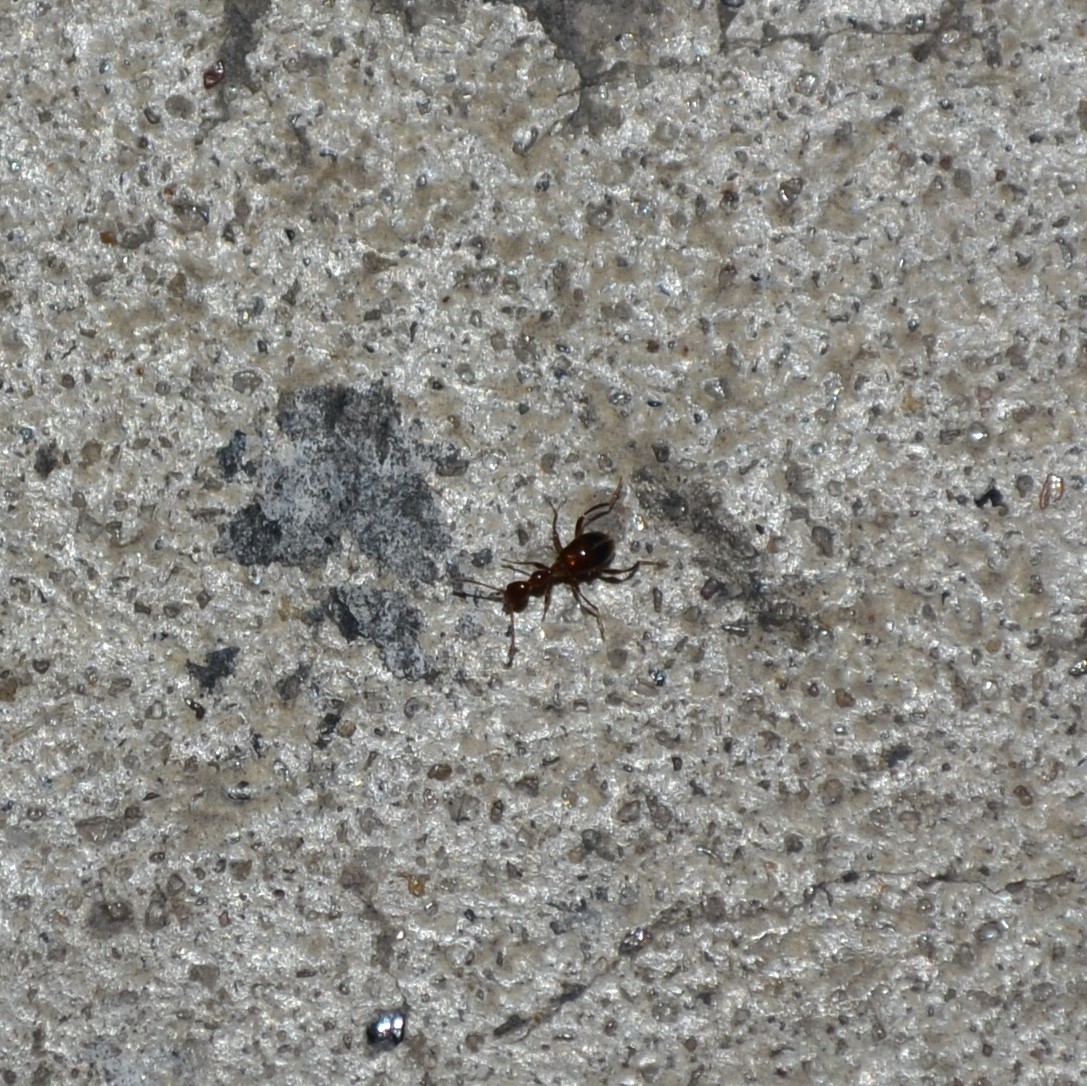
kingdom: Animalia
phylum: Arthropoda
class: Insecta
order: Coleoptera
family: Anthicidae
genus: Acanthinus
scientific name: Acanthinus
